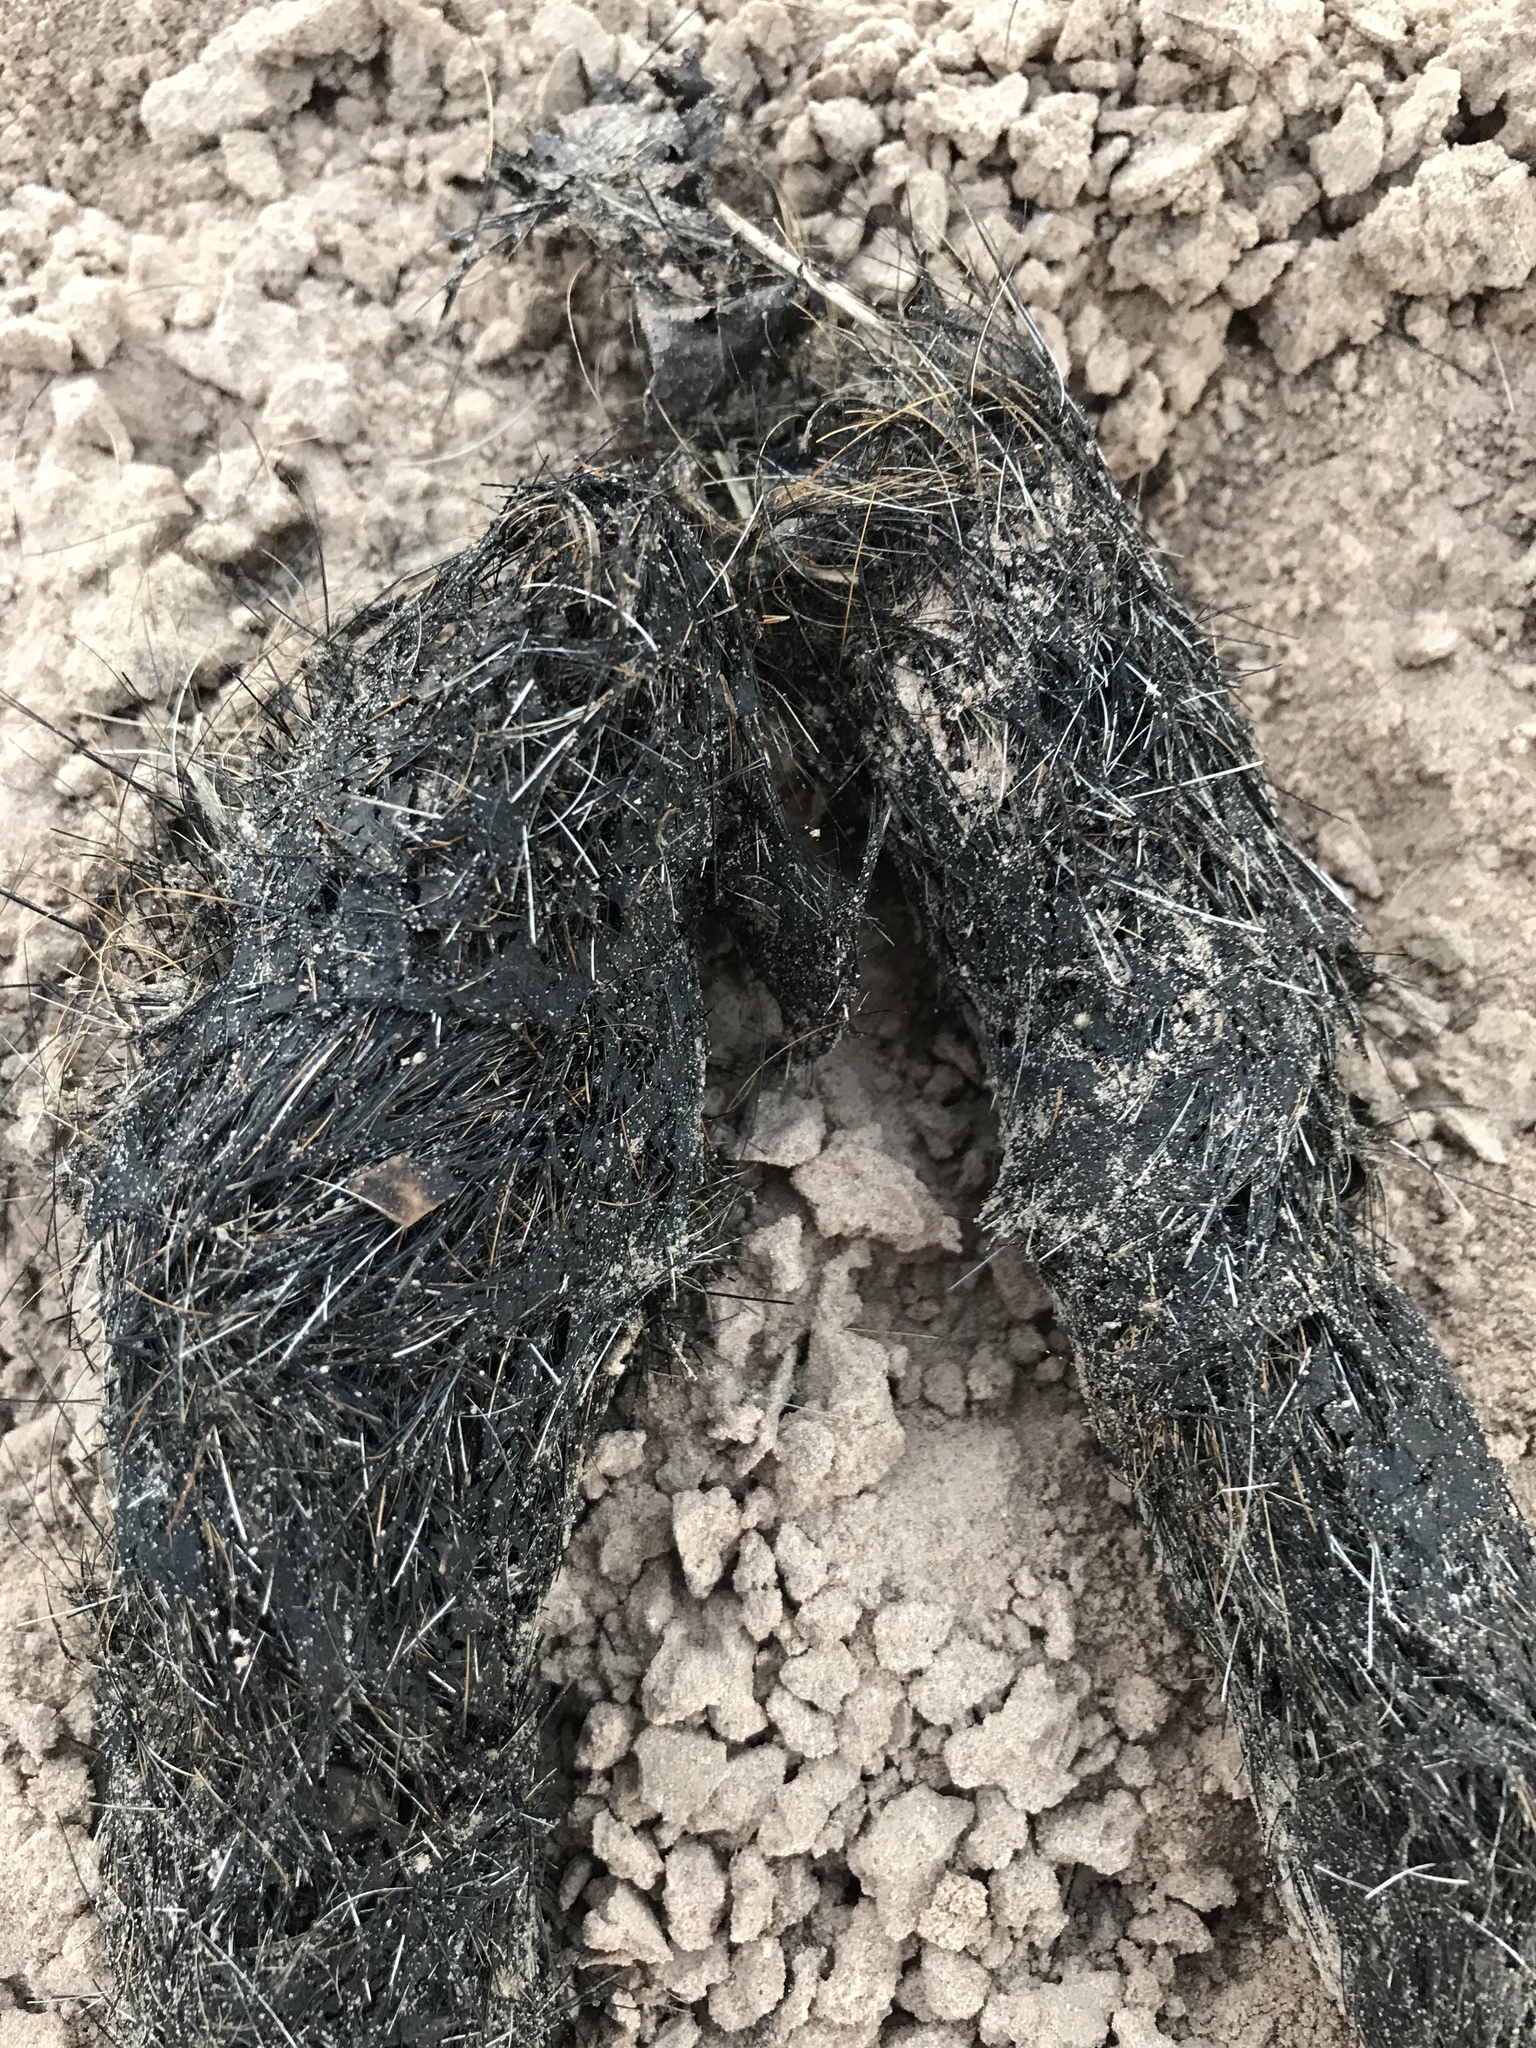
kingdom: Animalia
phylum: Chordata
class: Mammalia
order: Carnivora
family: Canidae
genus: Canis
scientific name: Canis latrans
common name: Coyote
